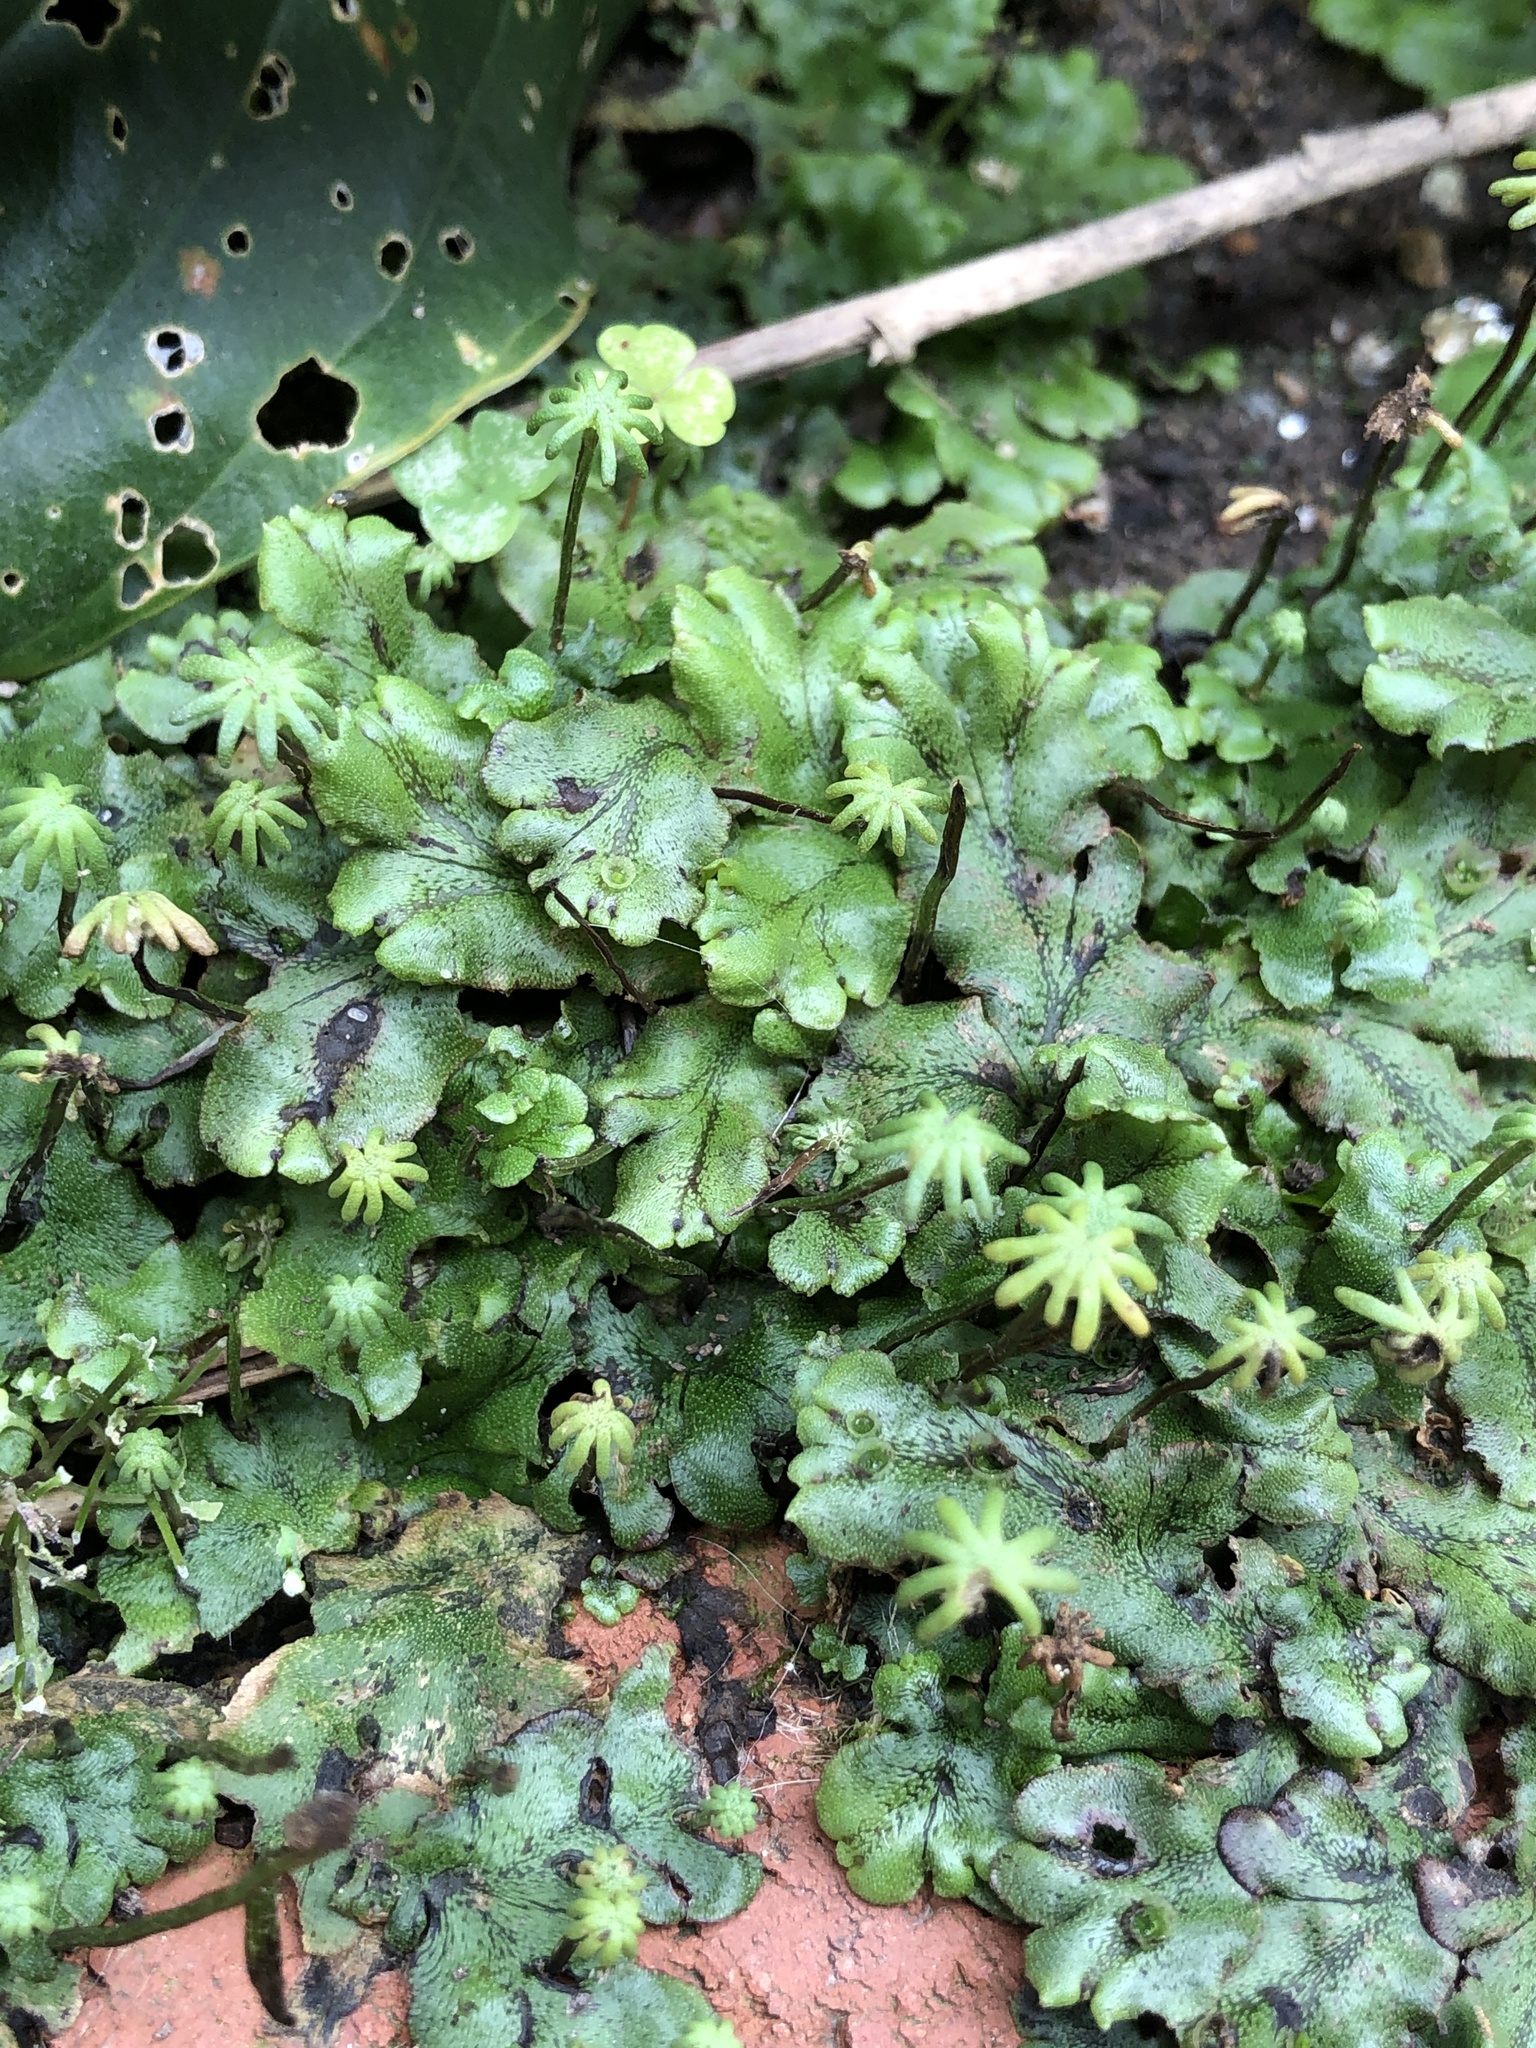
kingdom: Plantae
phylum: Marchantiophyta
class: Marchantiopsida
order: Marchantiales
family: Marchantiaceae
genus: Marchantia
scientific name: Marchantia polymorpha
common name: Common liverwort
